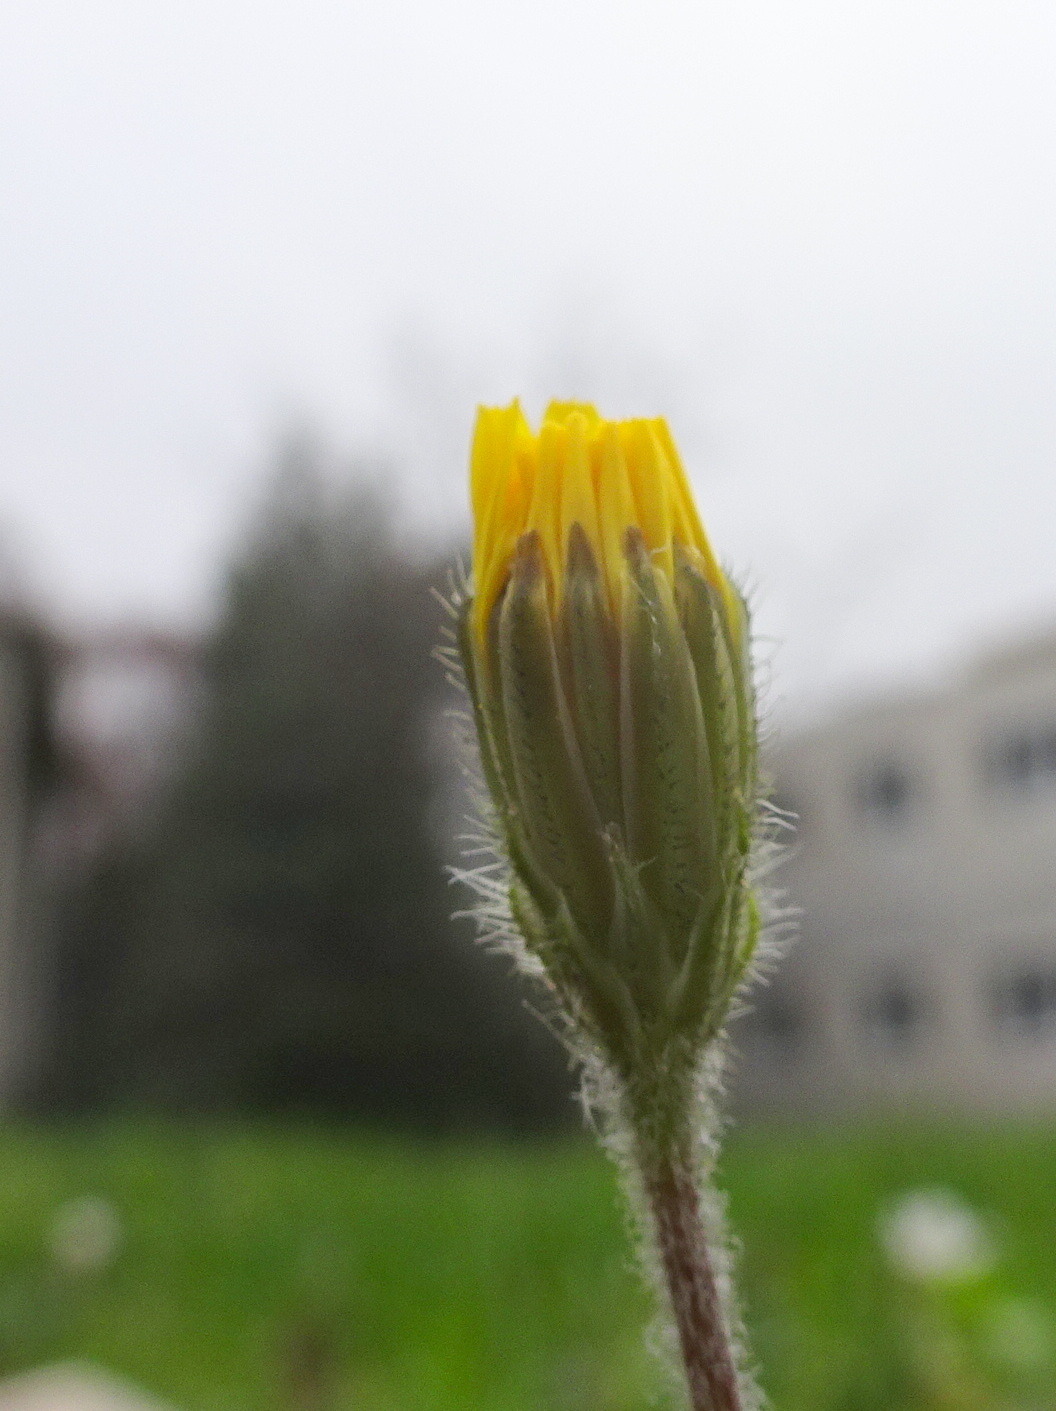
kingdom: Plantae
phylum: Tracheophyta
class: Magnoliopsida
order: Asterales
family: Asteraceae
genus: Crepis
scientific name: Crepis sancta
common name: Hawk's-beard
